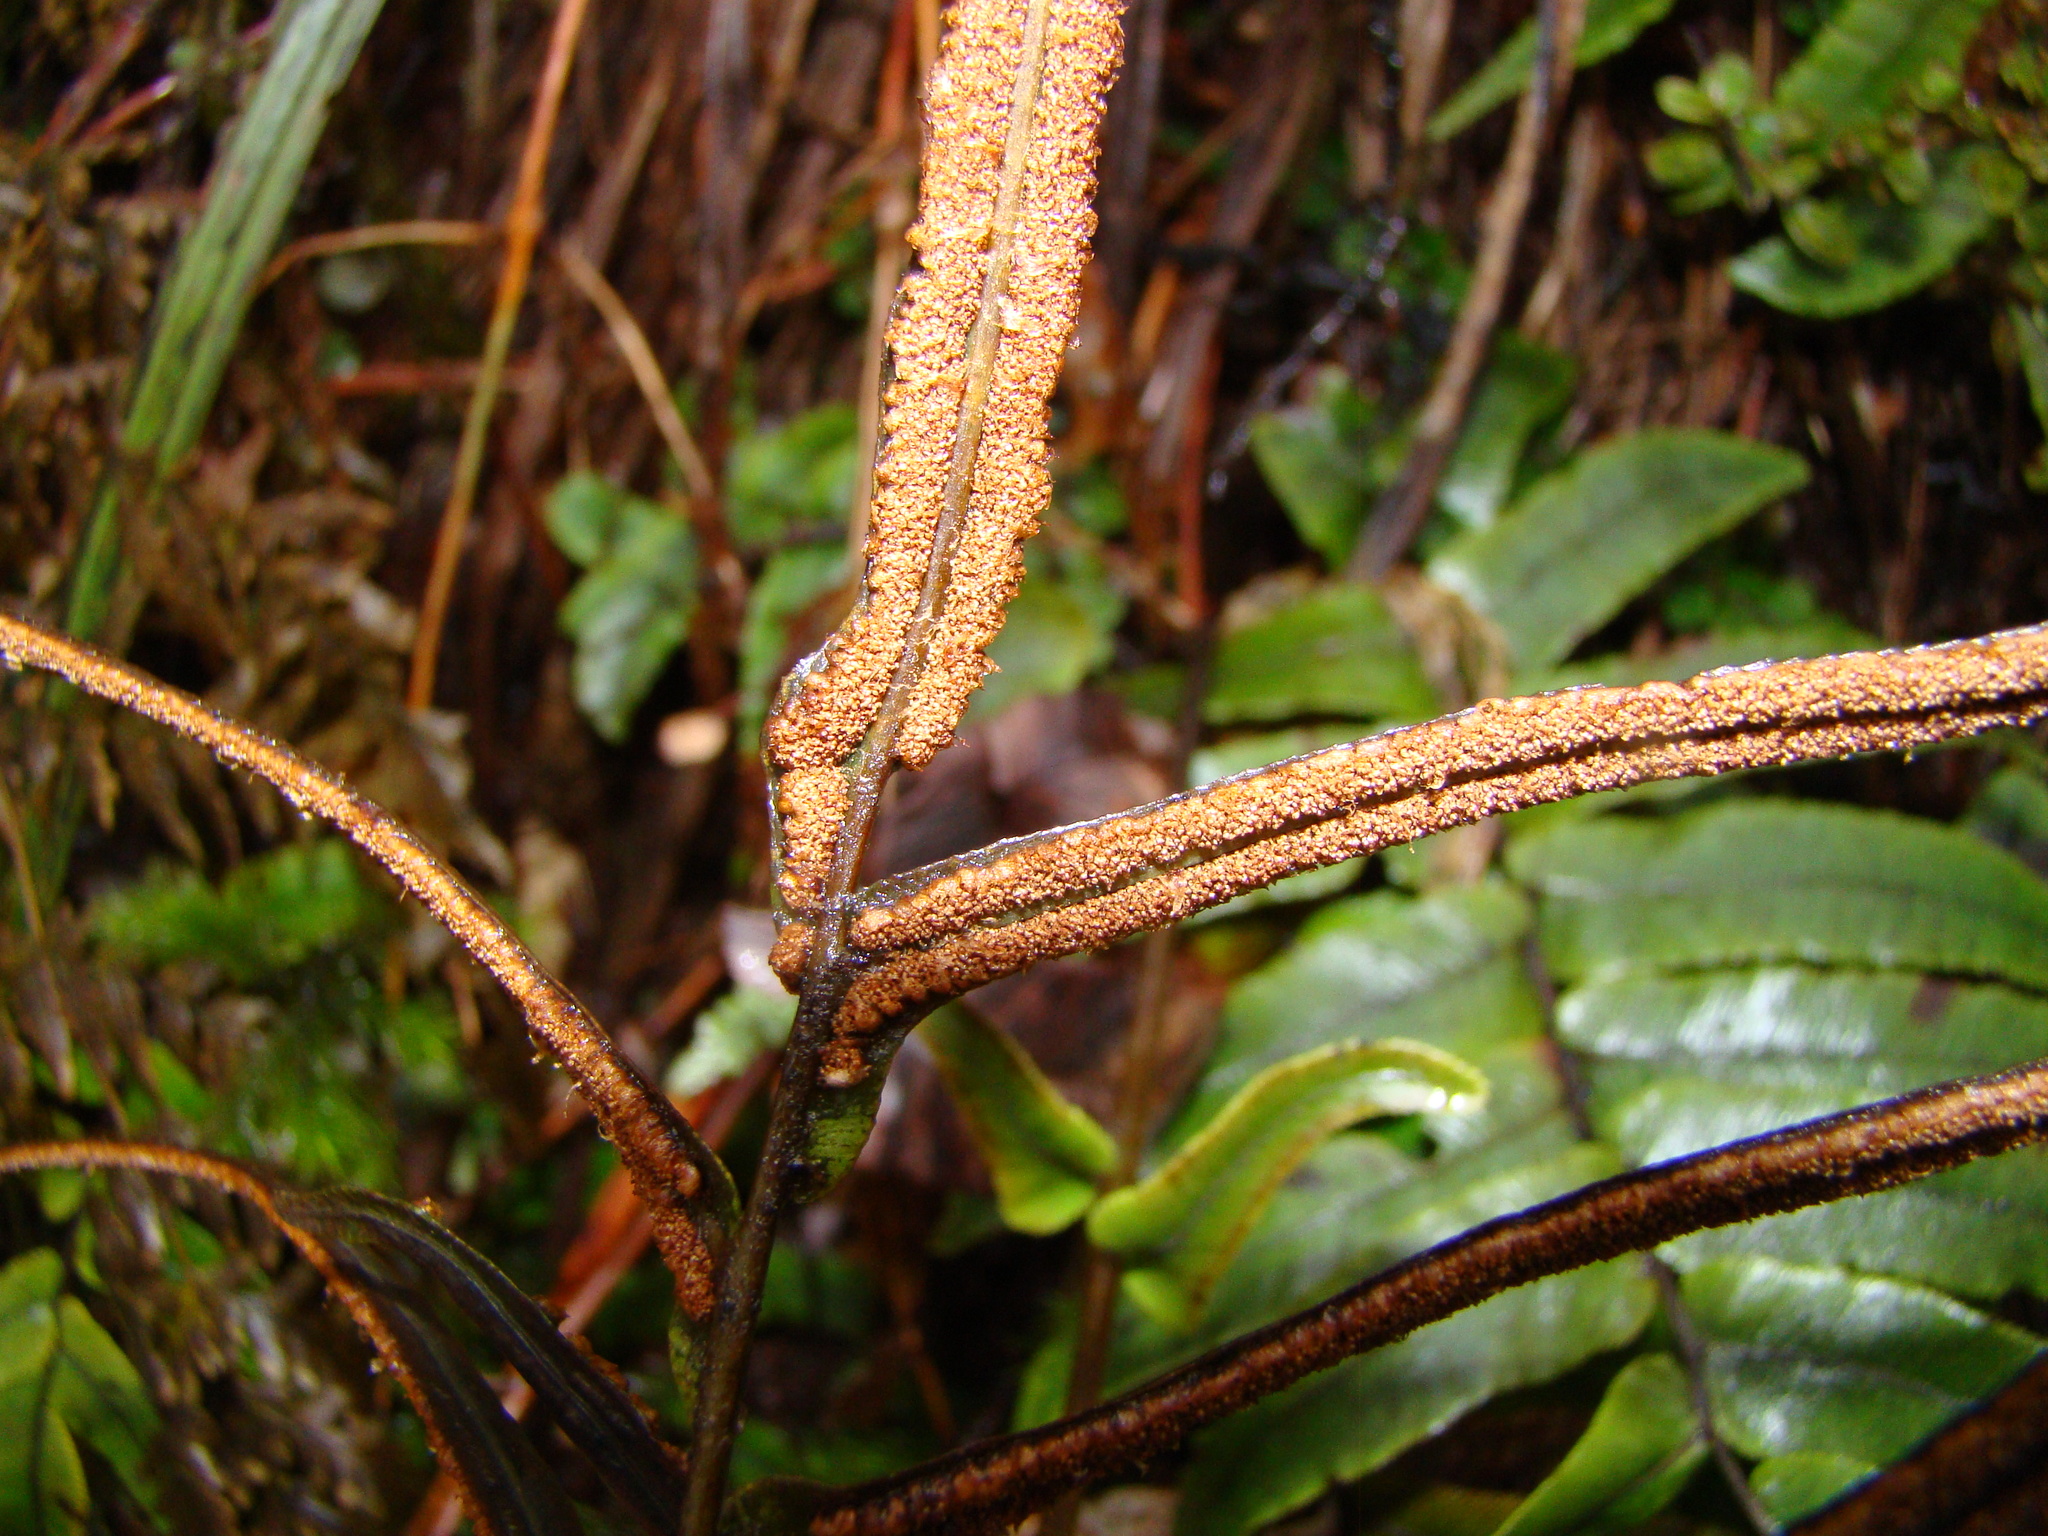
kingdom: Plantae
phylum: Tracheophyta
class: Polypodiopsida
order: Polypodiales
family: Blechnaceae
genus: Parablechnum
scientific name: Parablechnum procerum
